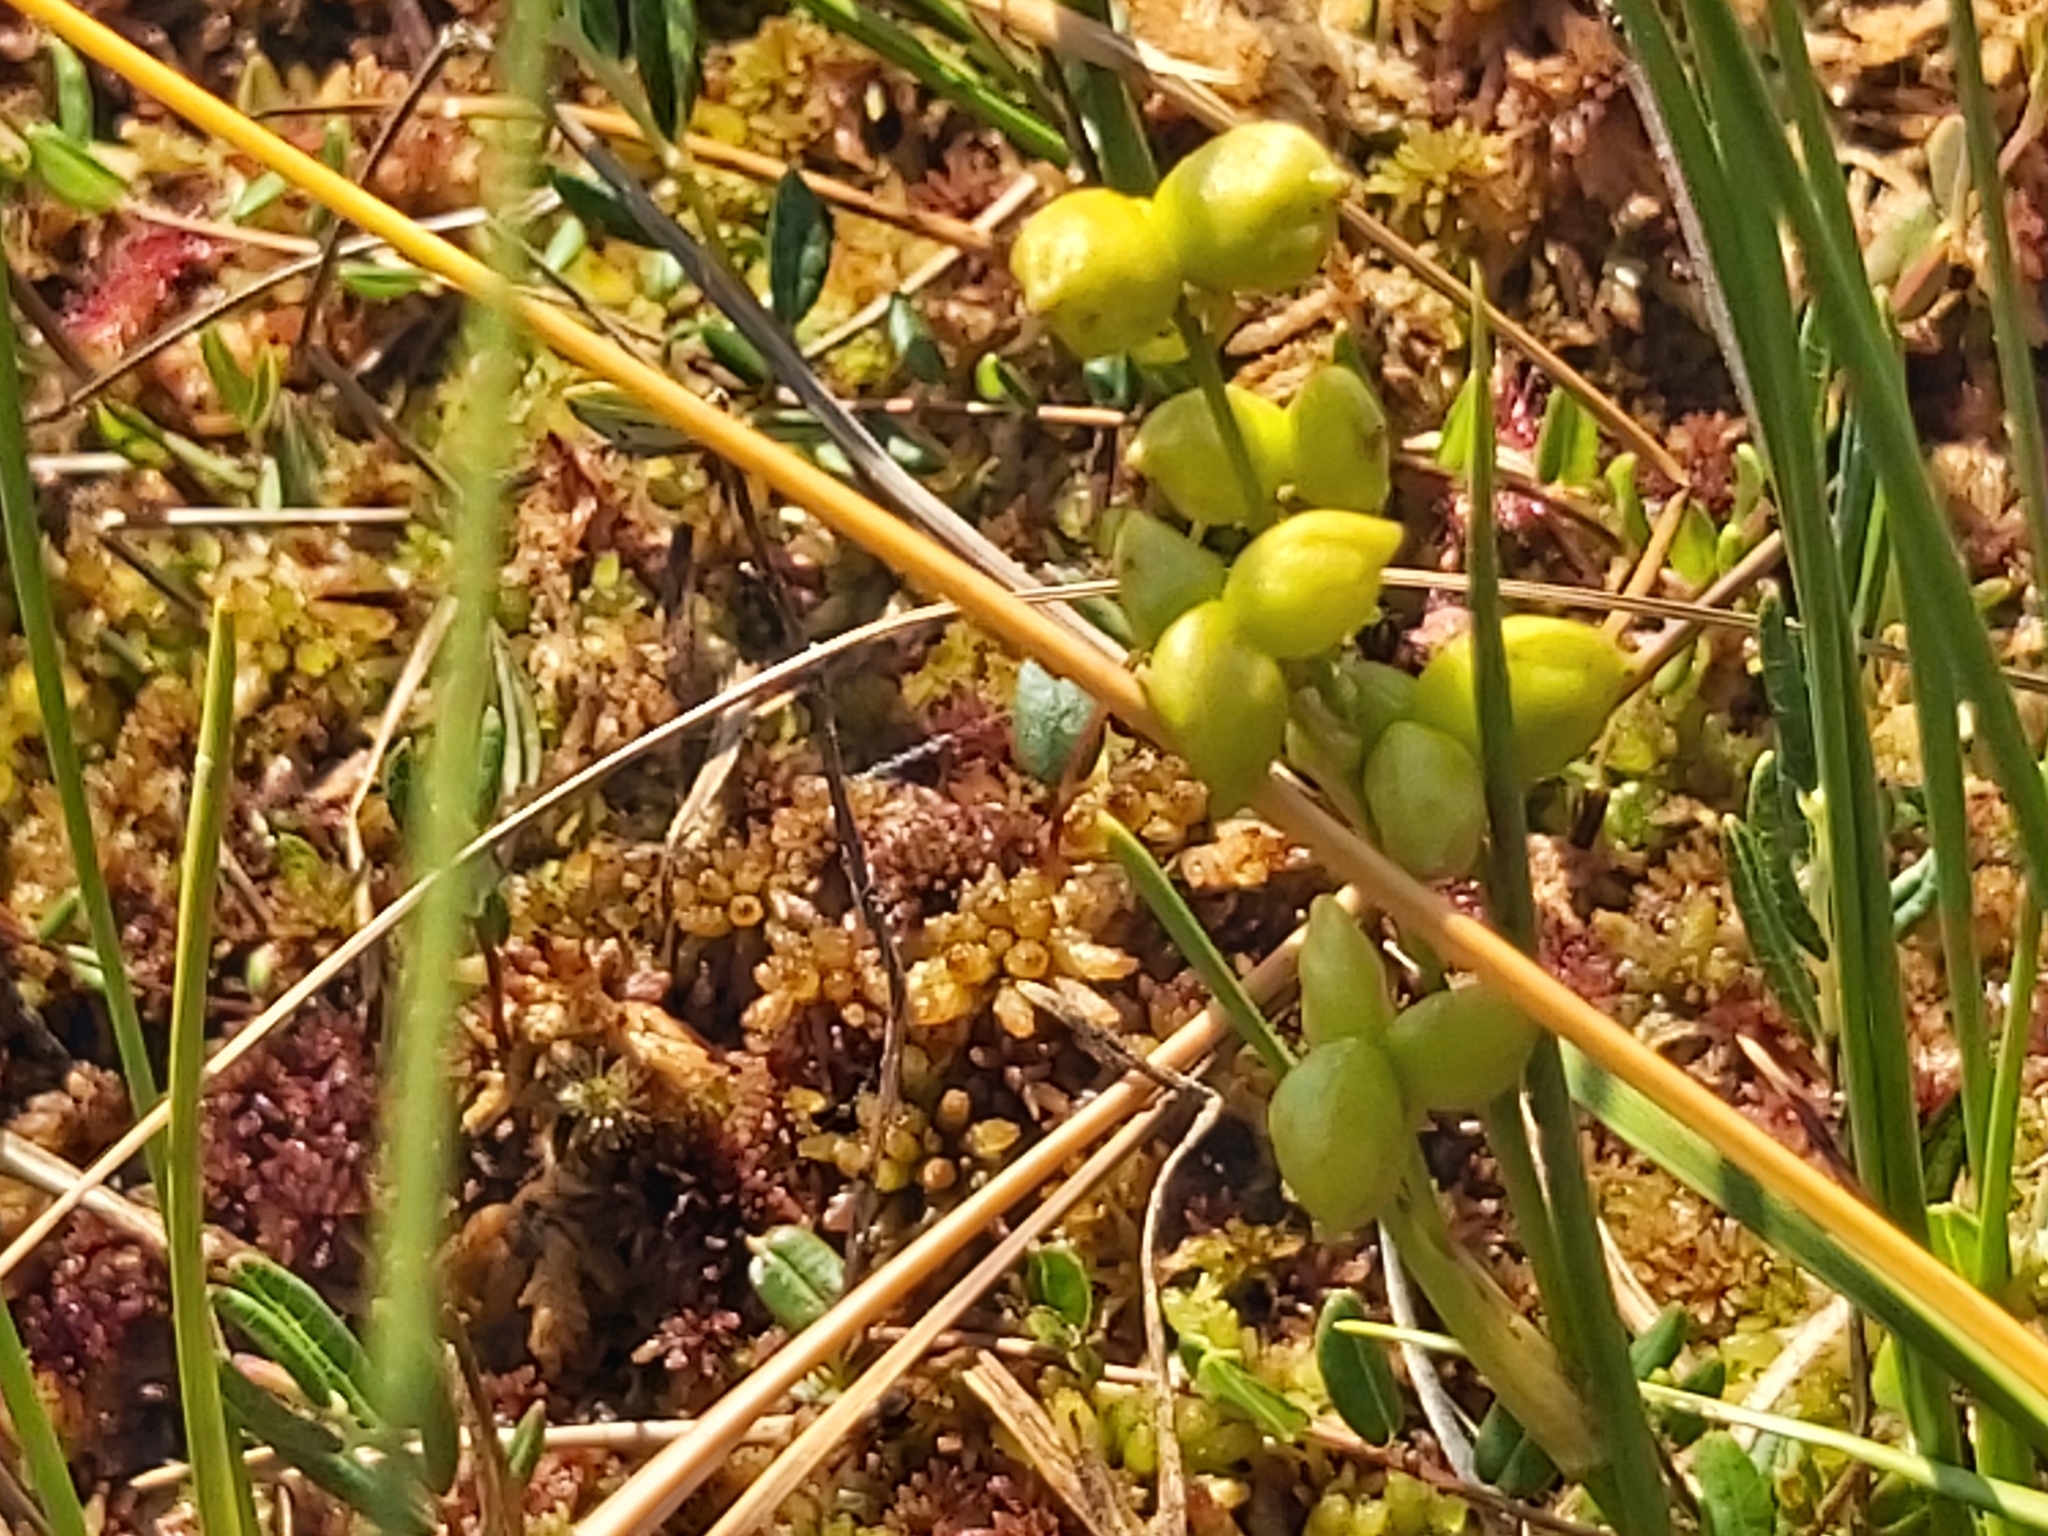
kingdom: Plantae
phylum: Tracheophyta
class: Liliopsida
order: Alismatales
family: Scheuchzeriaceae
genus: Scheuchzeria
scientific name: Scheuchzeria palustris
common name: Rannoch-rush
